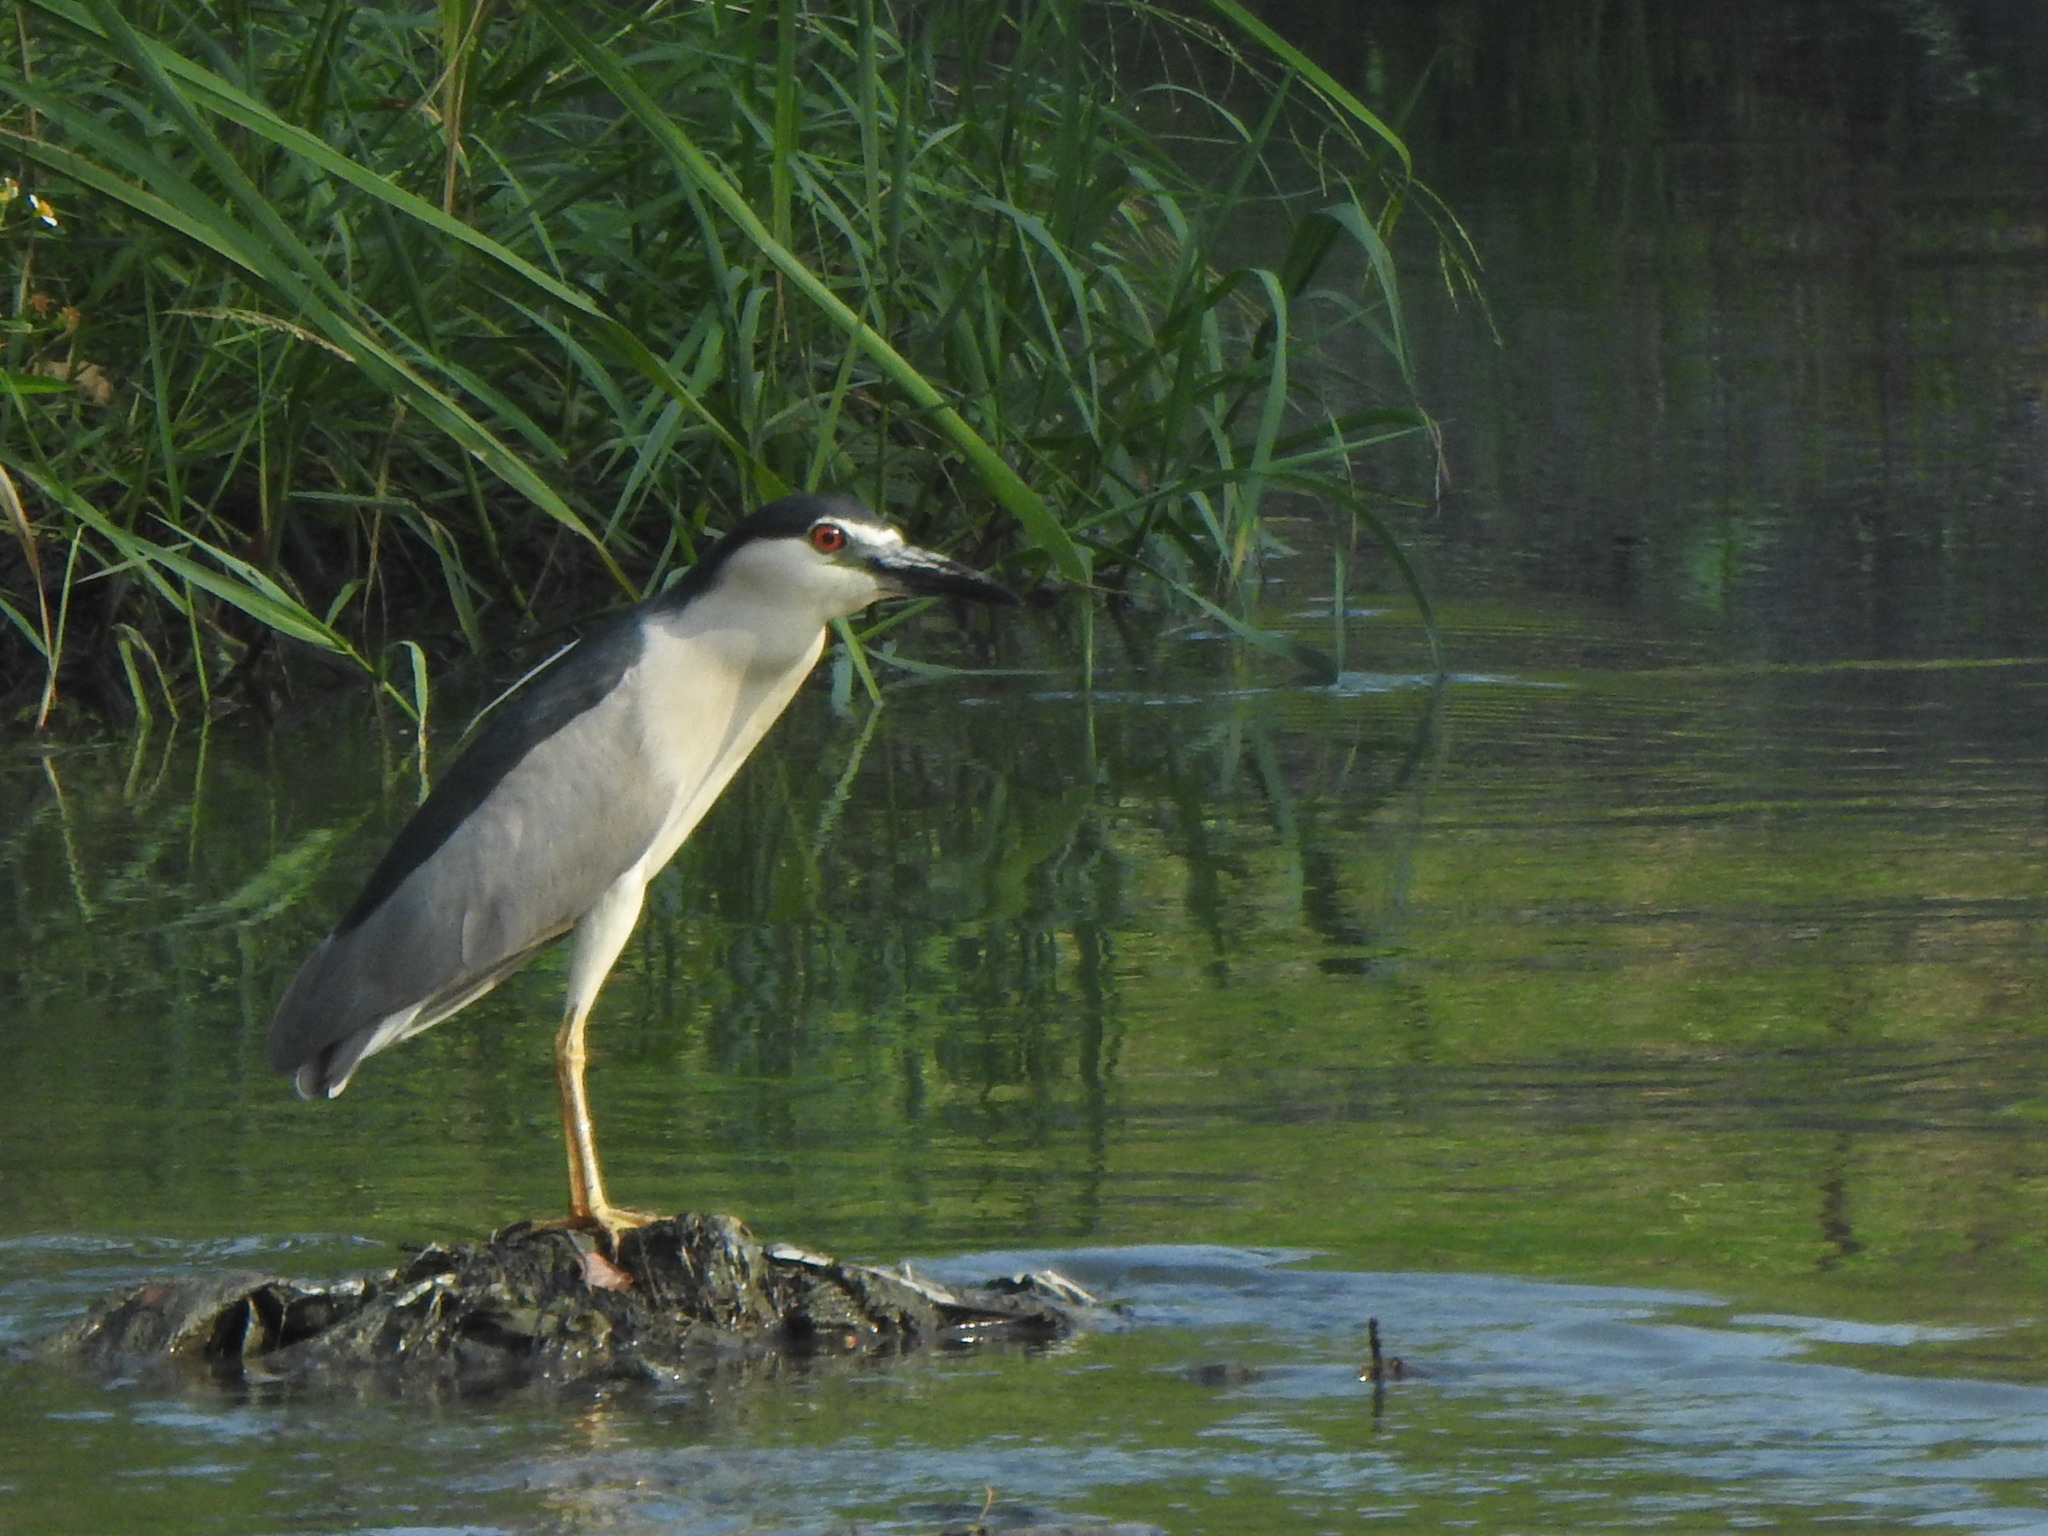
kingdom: Animalia
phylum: Chordata
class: Aves
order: Pelecaniformes
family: Ardeidae
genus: Nycticorax
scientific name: Nycticorax nycticorax
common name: Black-crowned night heron
